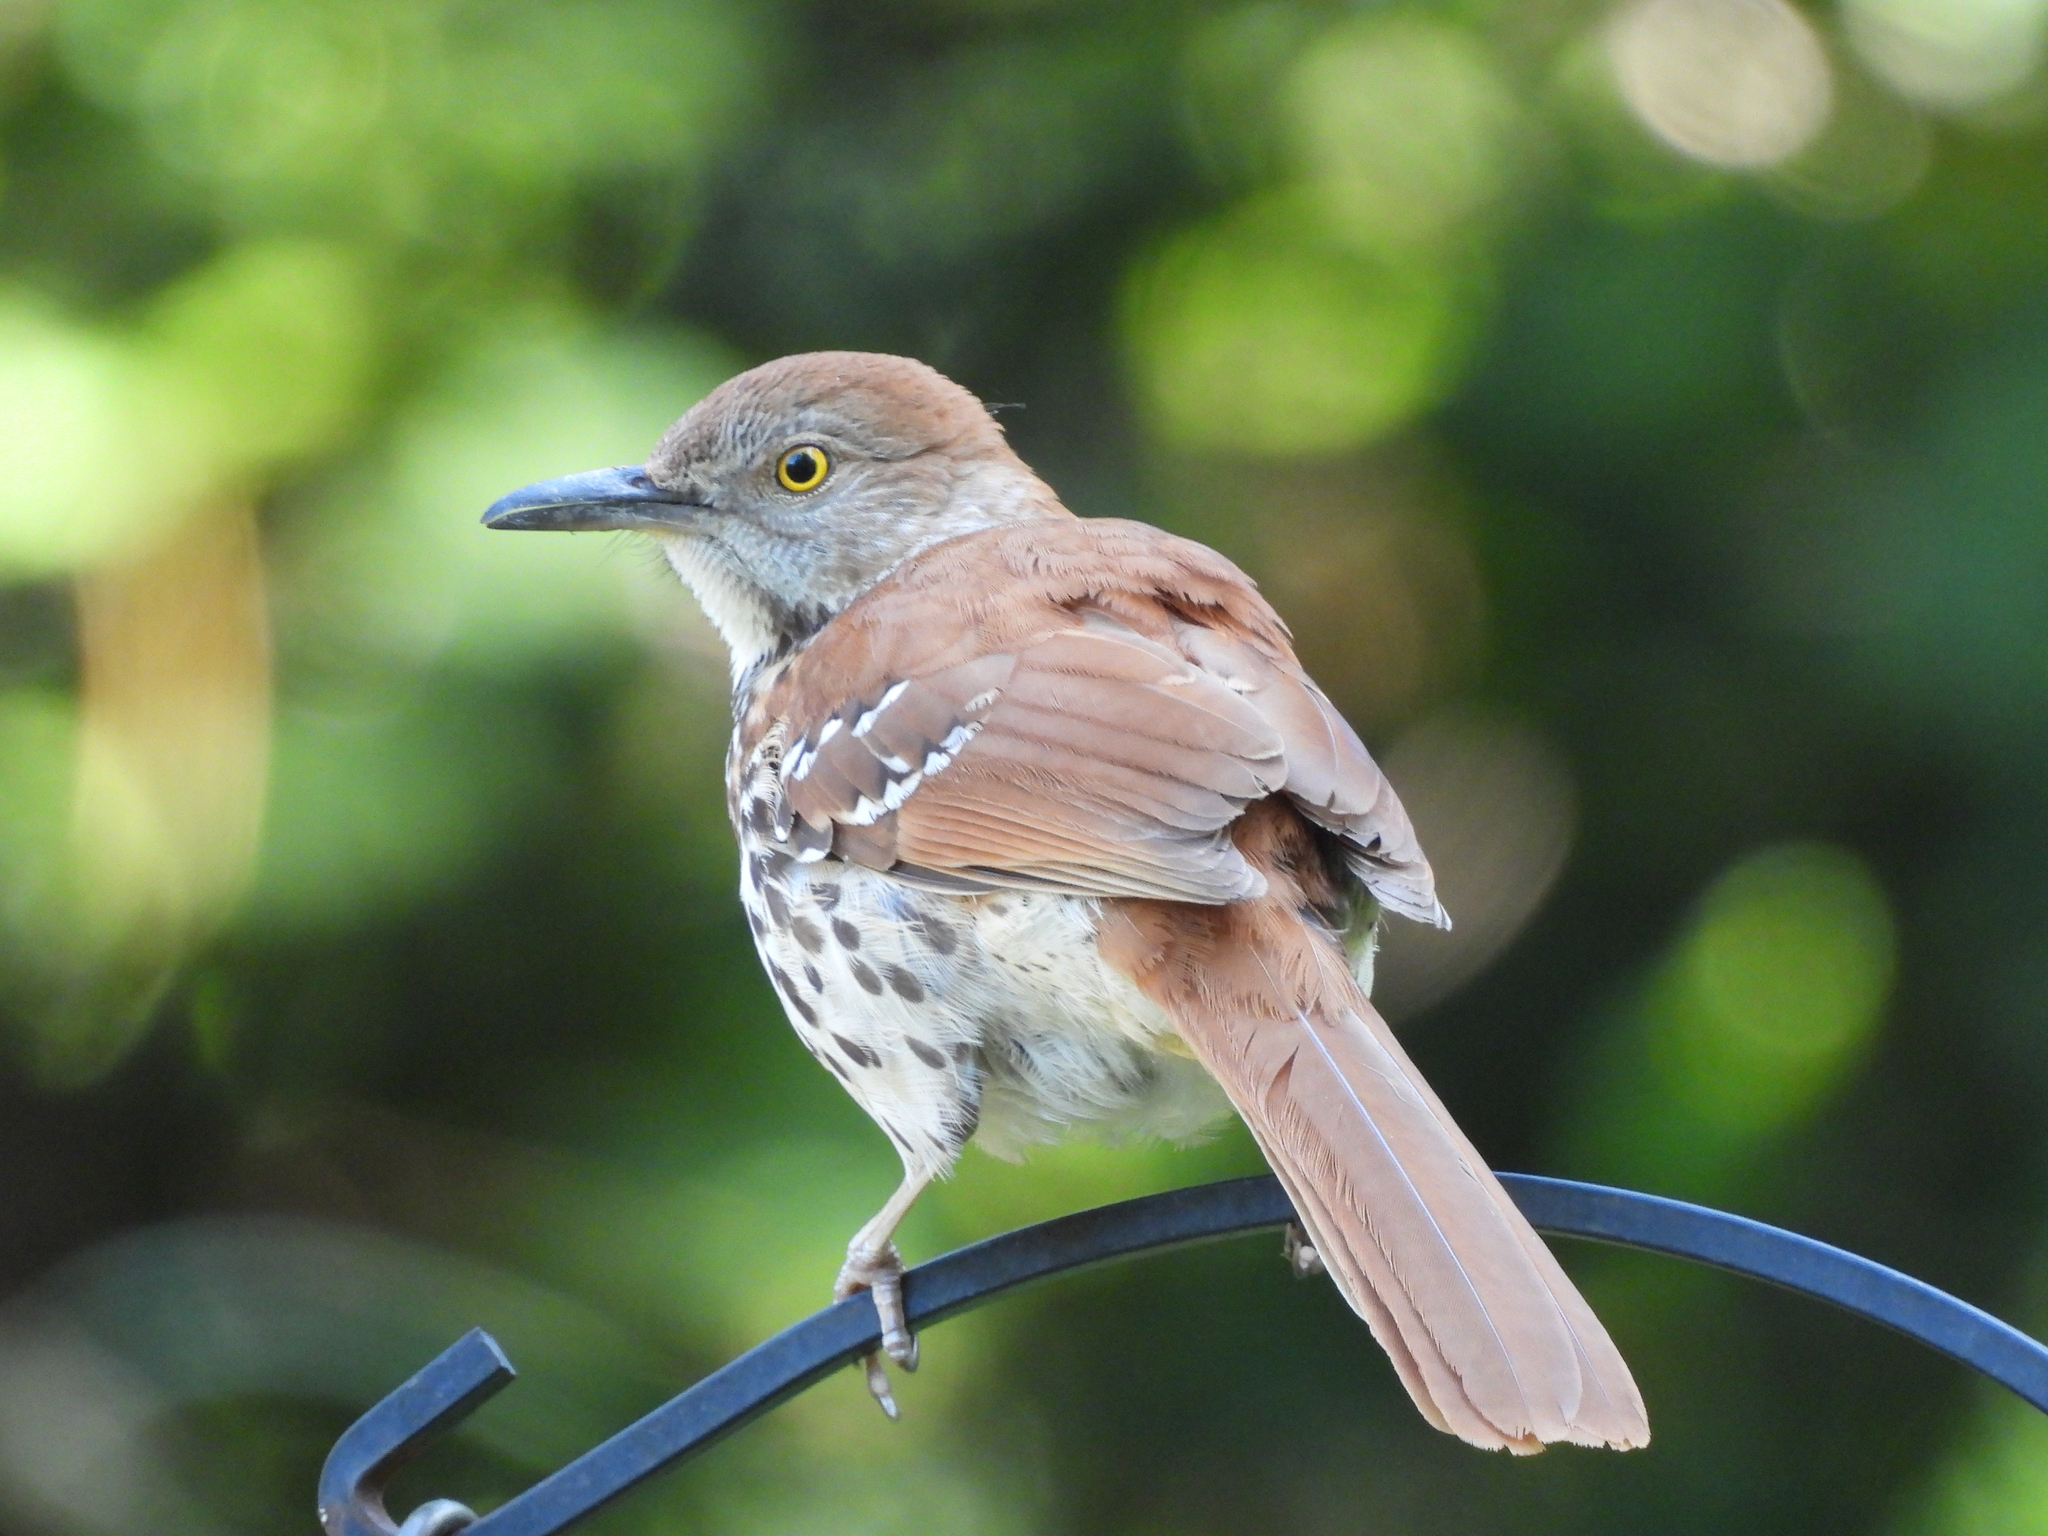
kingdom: Animalia
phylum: Chordata
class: Aves
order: Passeriformes
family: Mimidae
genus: Toxostoma
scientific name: Toxostoma rufum
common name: Brown thrasher
